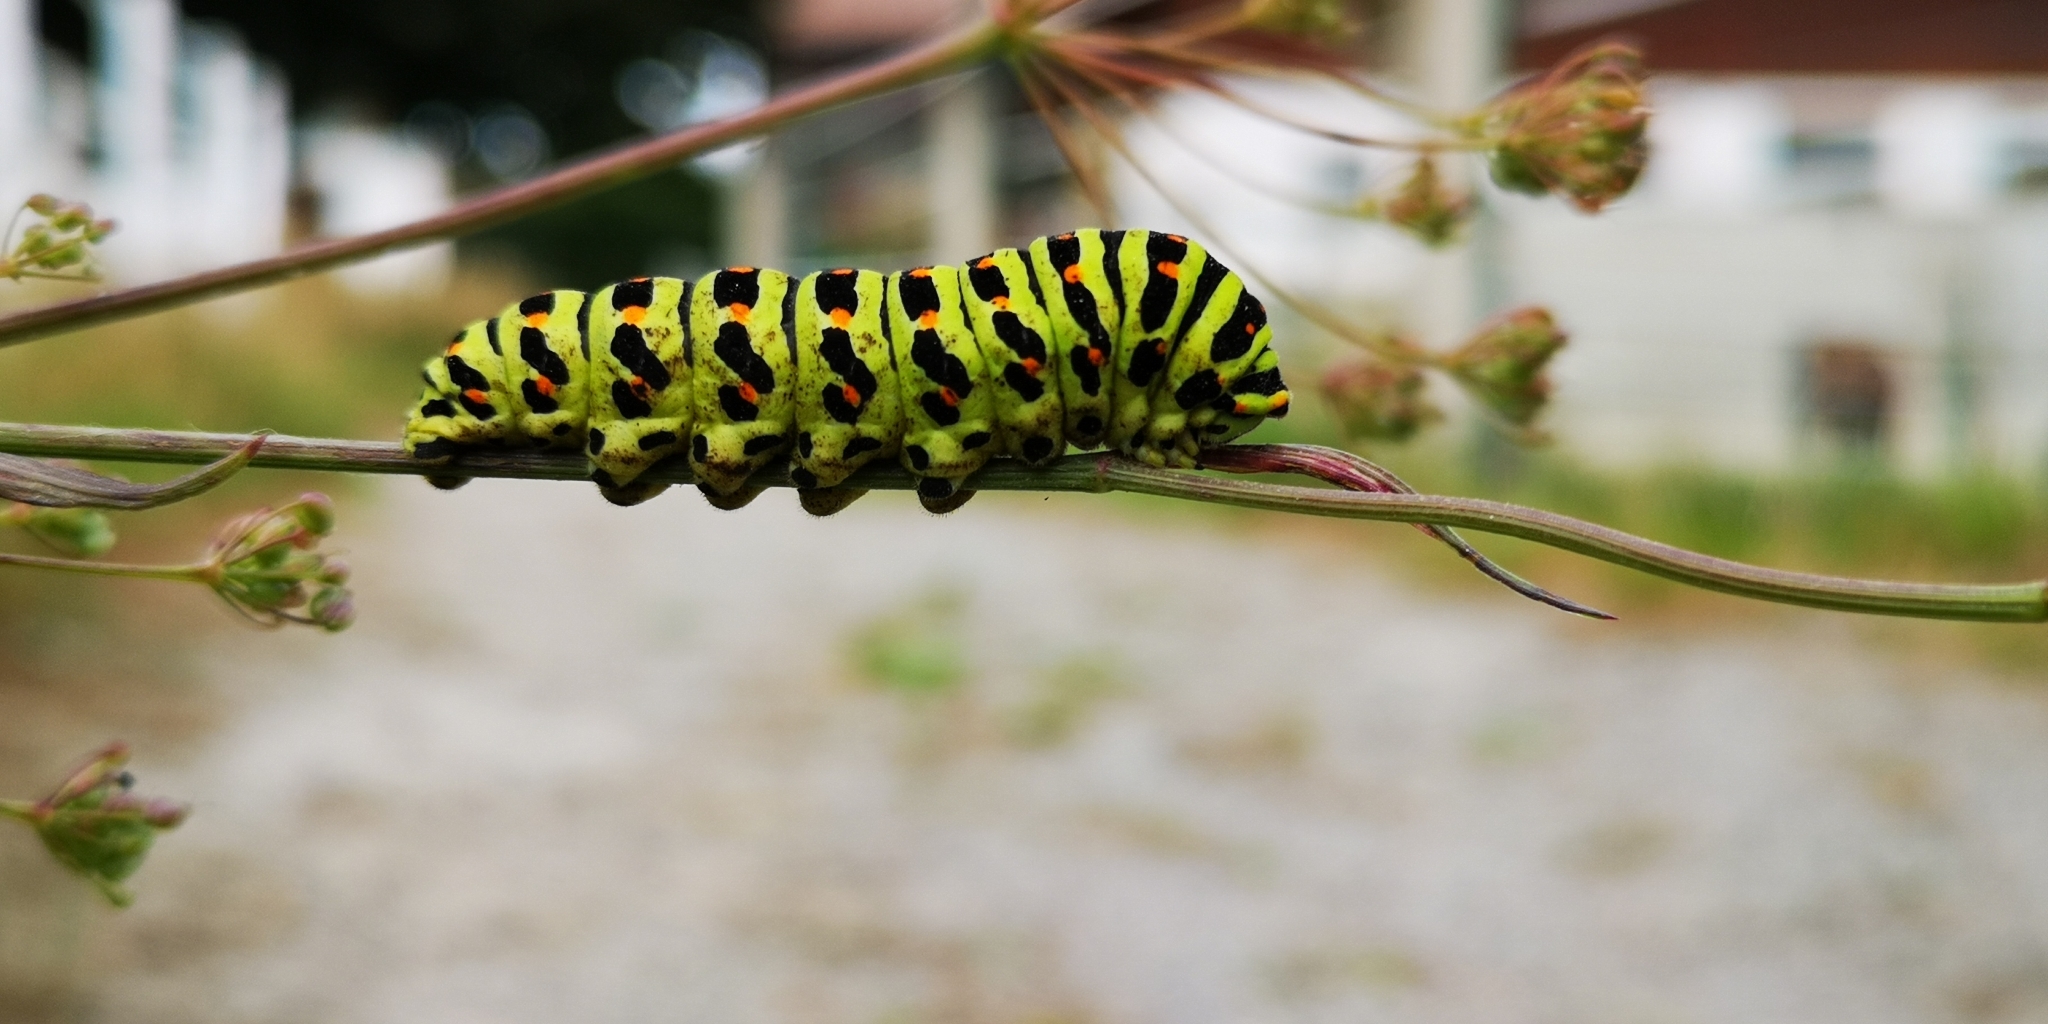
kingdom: Animalia
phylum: Arthropoda
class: Insecta
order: Lepidoptera
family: Papilionidae
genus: Papilio
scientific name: Papilio machaon
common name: Swallowtail
